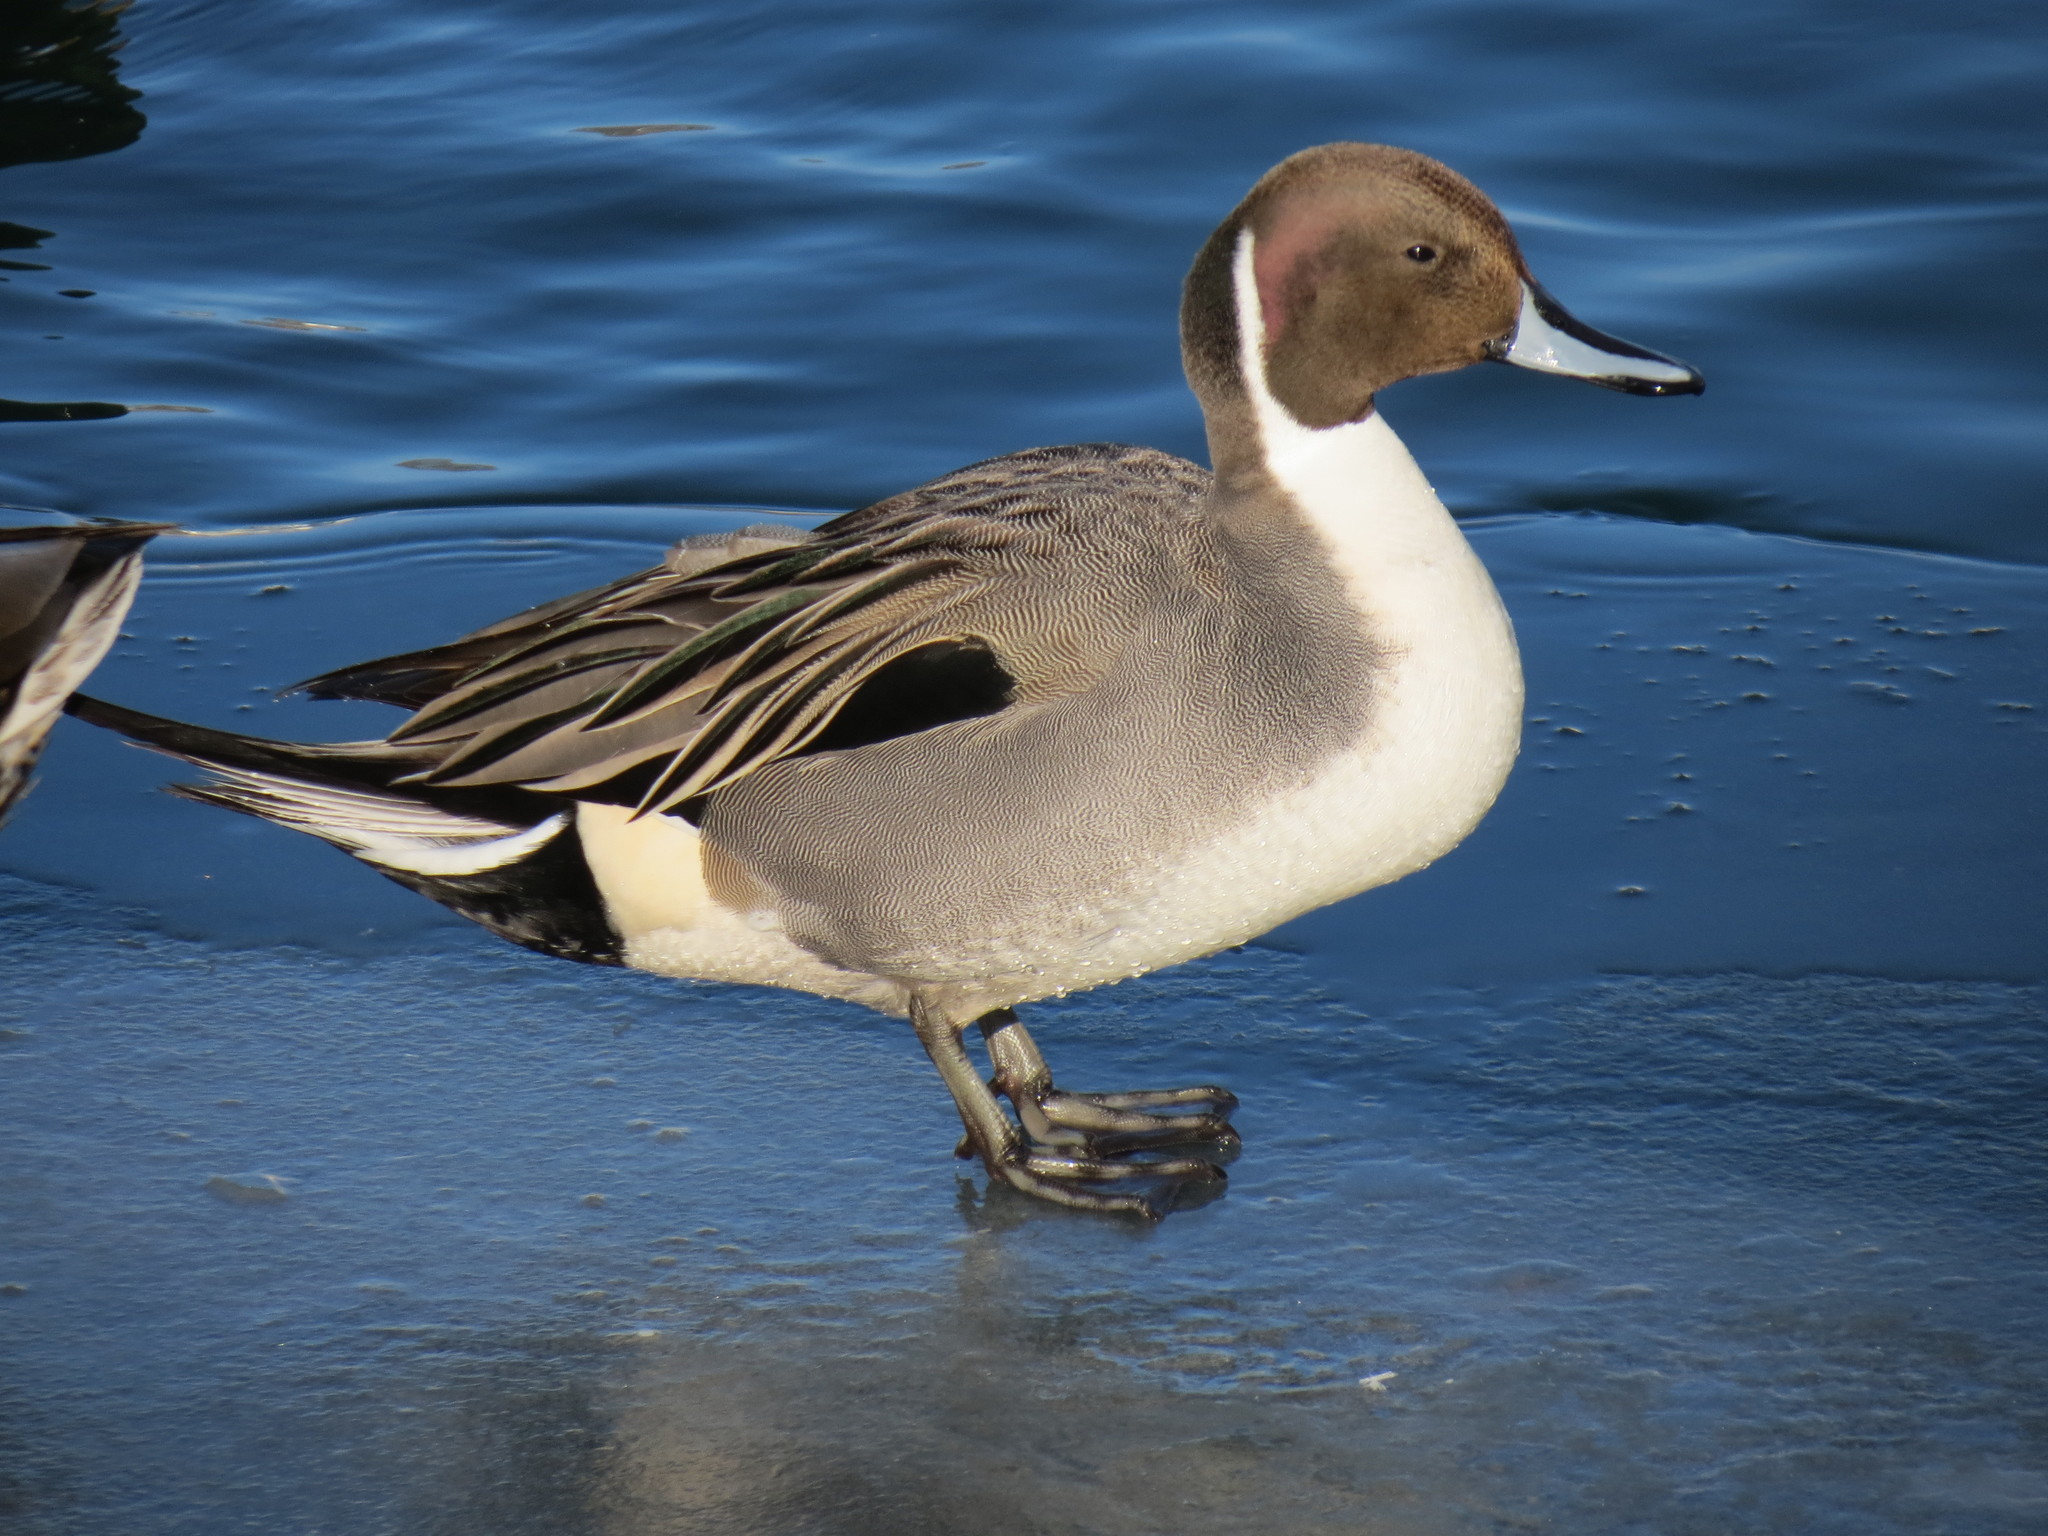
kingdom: Animalia
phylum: Chordata
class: Aves
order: Anseriformes
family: Anatidae
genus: Anas
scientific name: Anas acuta
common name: Northern pintail
